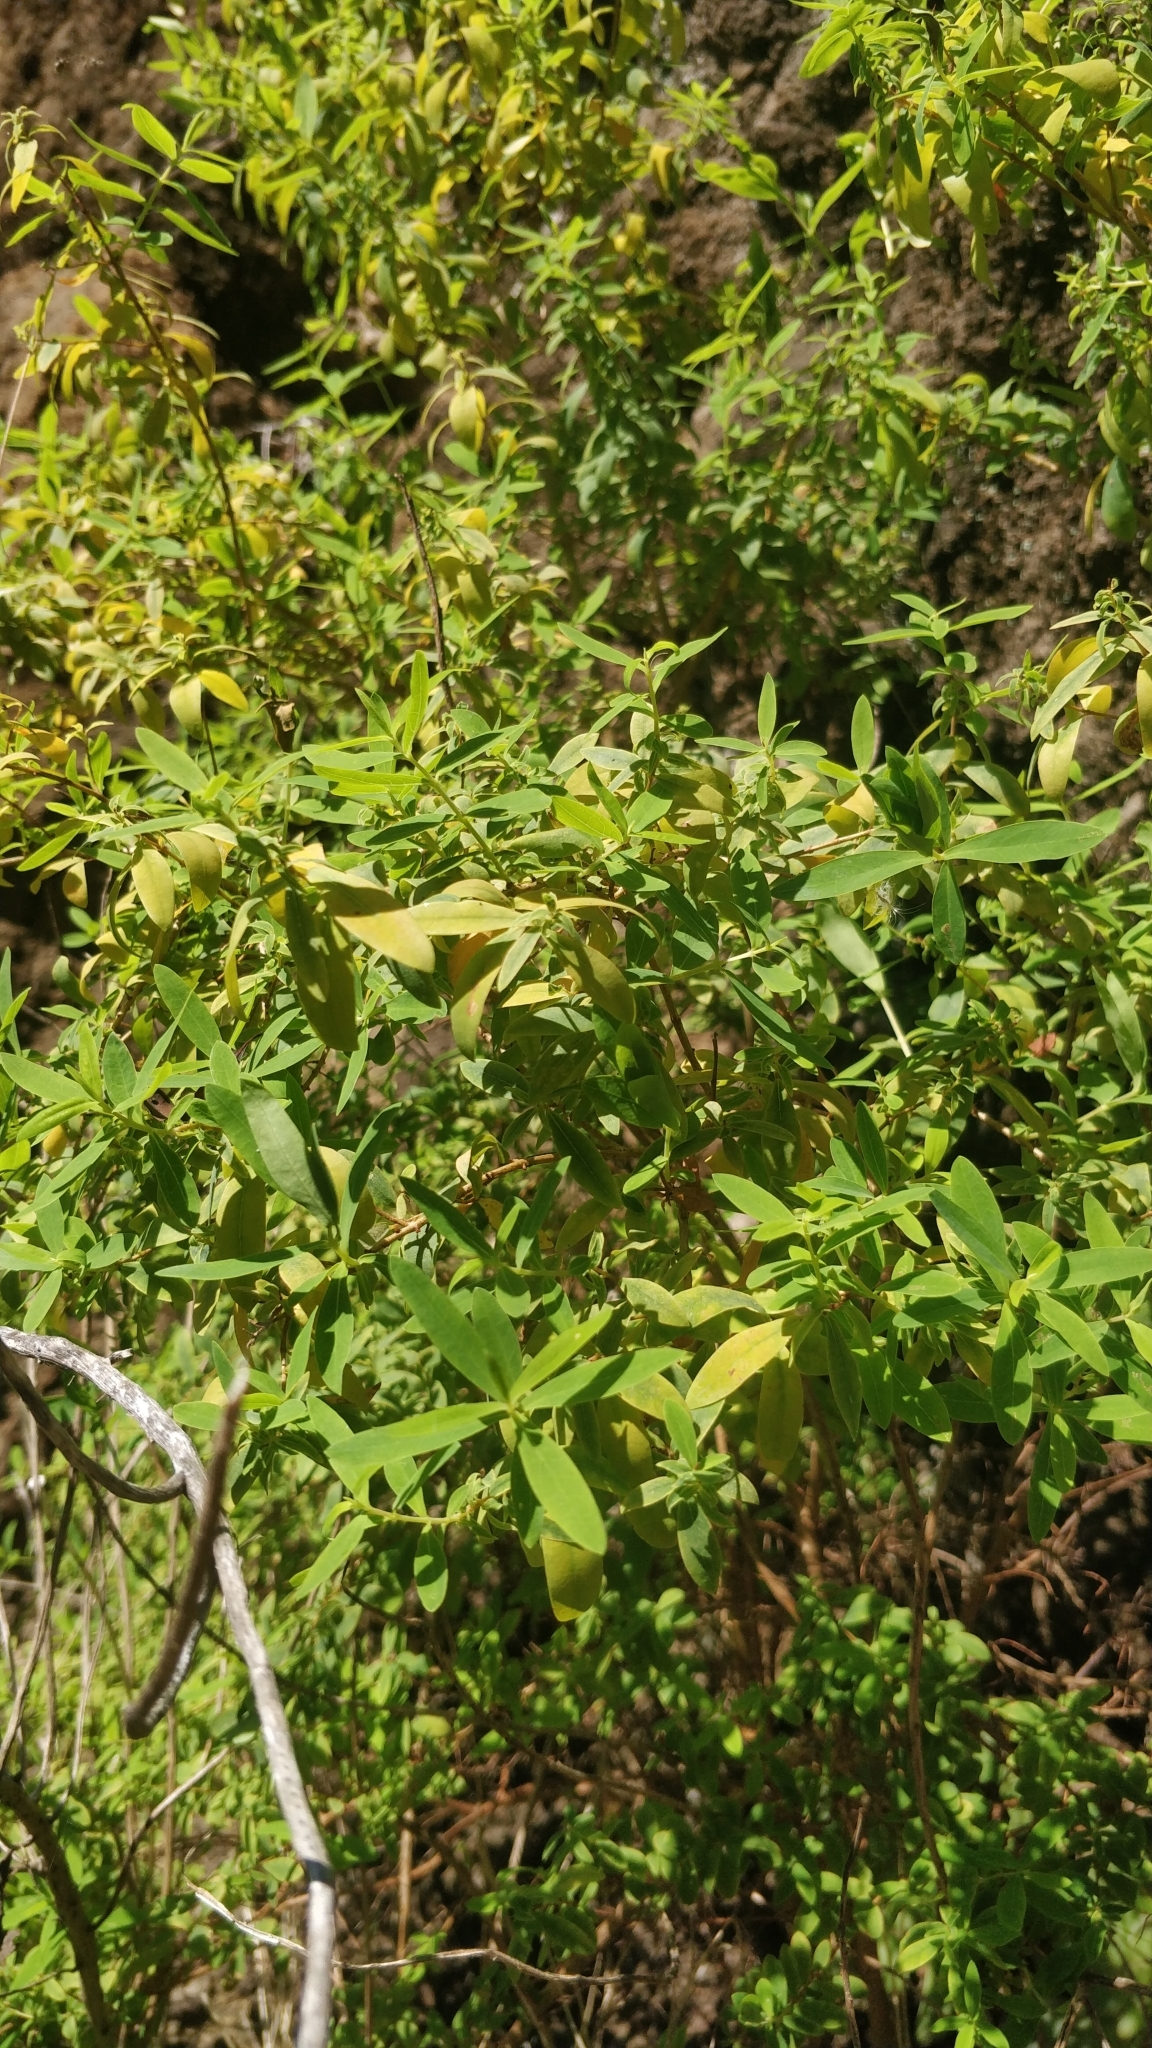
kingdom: Plantae
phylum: Tracheophyta
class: Magnoliopsida
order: Malpighiales
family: Hypericaceae
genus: Hypericum
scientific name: Hypericum canariense
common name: Canary island st. johnswort
